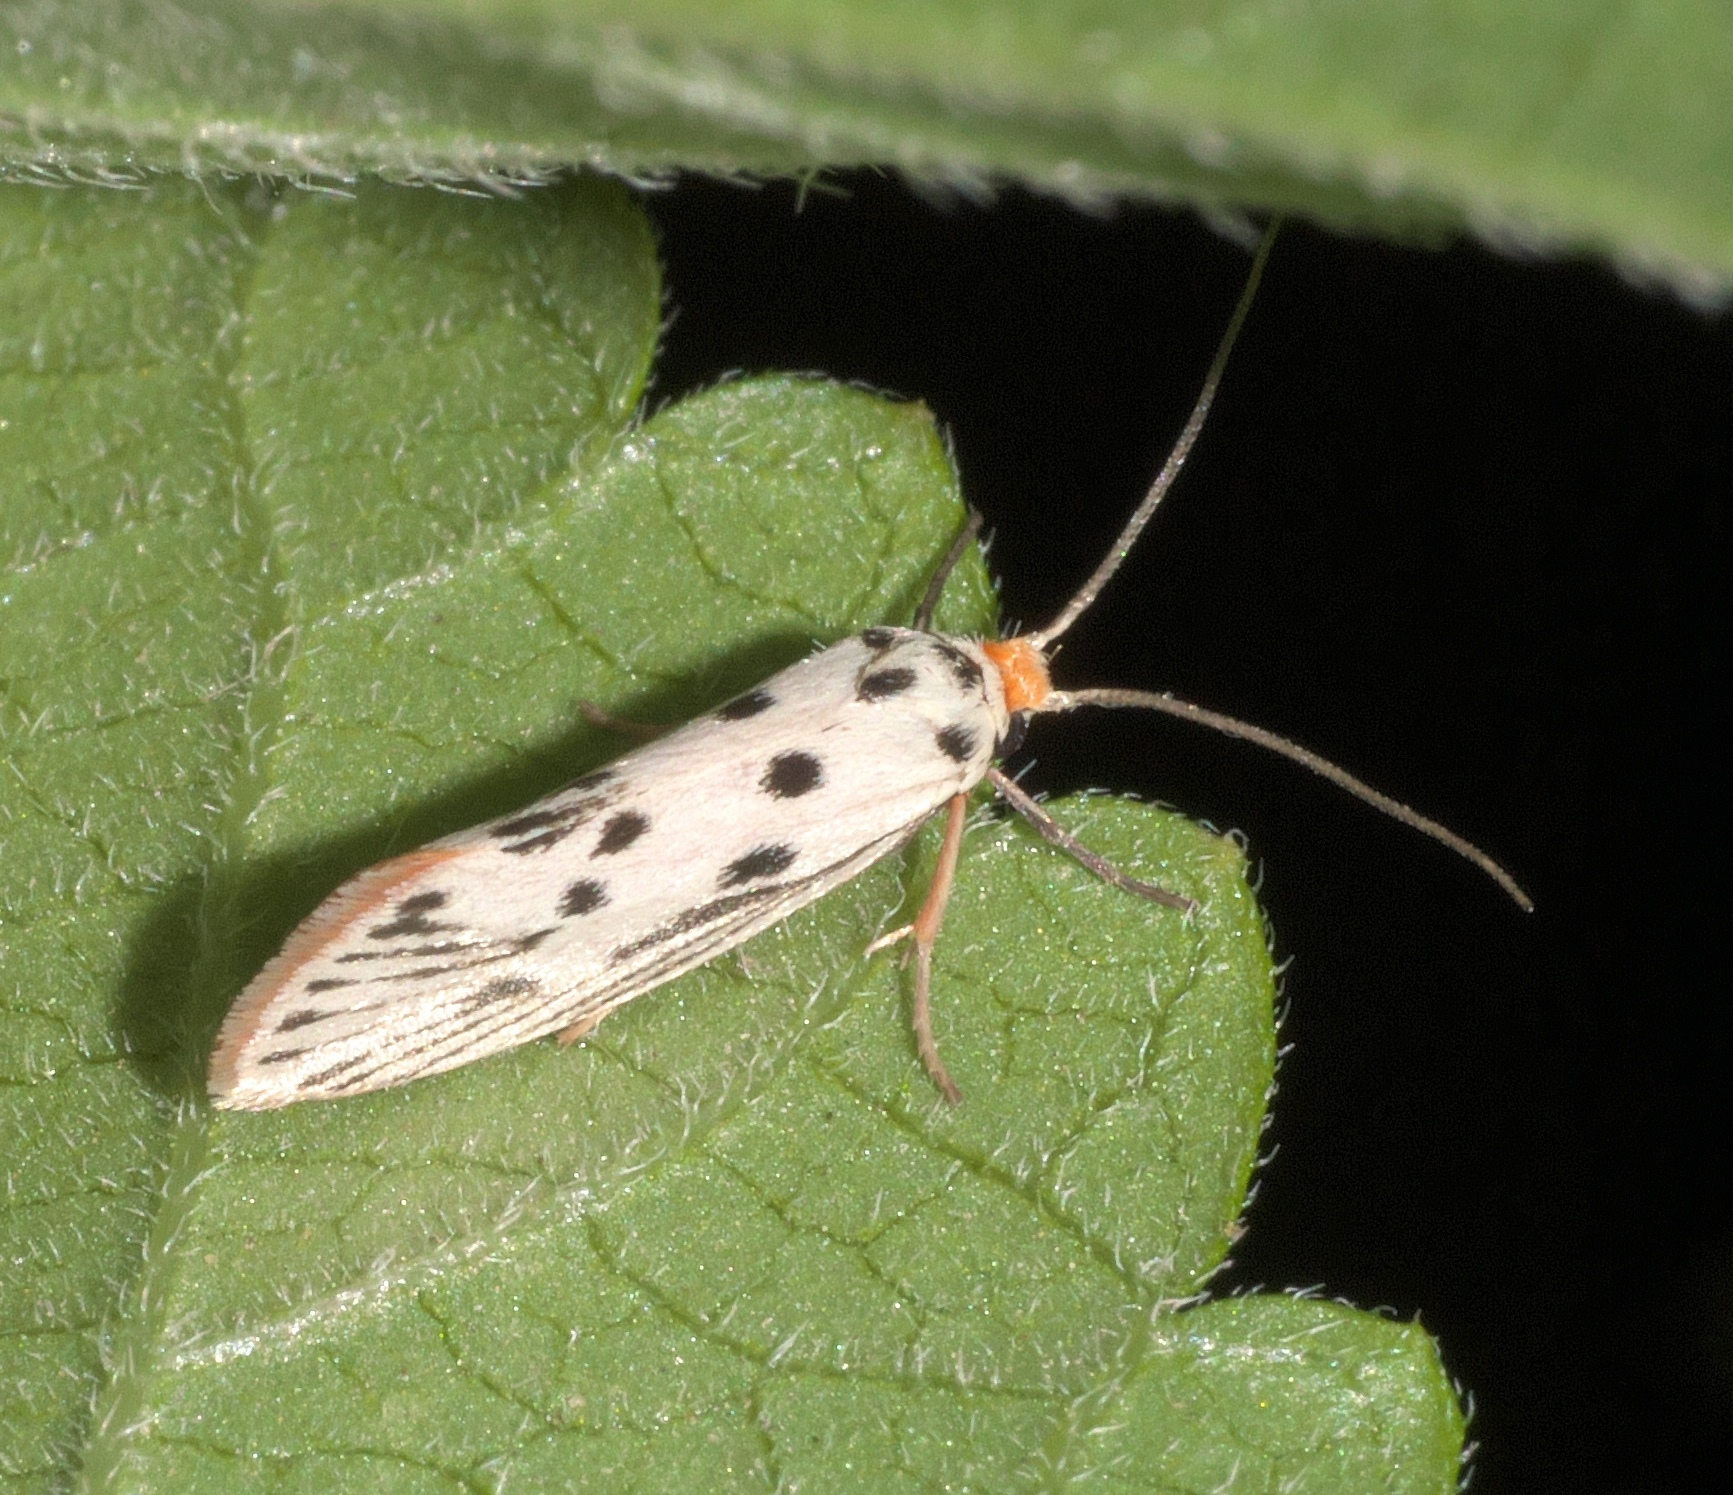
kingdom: Animalia
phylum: Arthropoda
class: Insecta
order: Lepidoptera
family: Lacturidae
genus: Lactura
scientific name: Lactura
